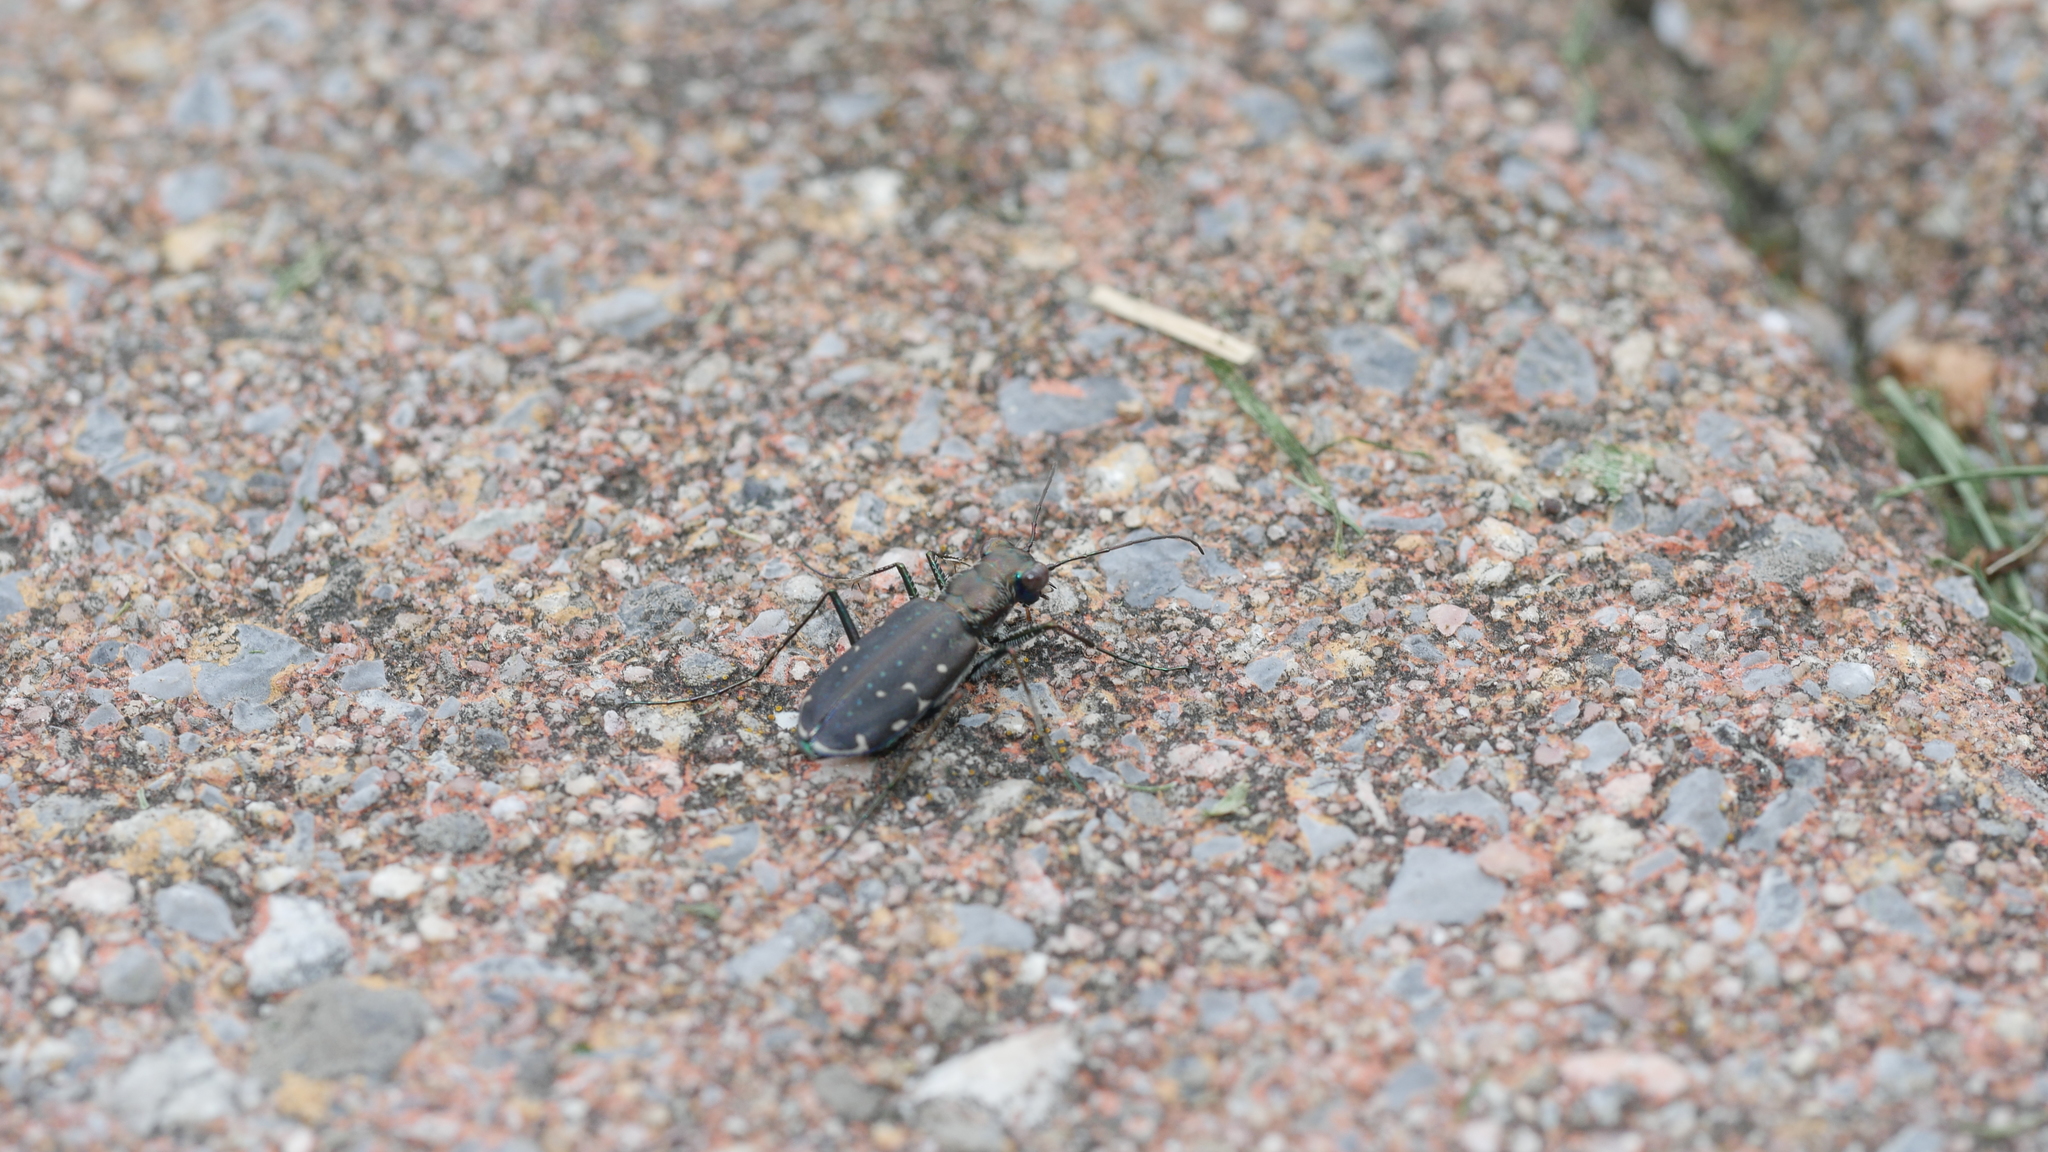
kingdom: Animalia
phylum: Arthropoda
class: Insecta
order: Coleoptera
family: Carabidae
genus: Cicindela
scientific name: Cicindela punctulata
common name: Punctured tiger beetle
